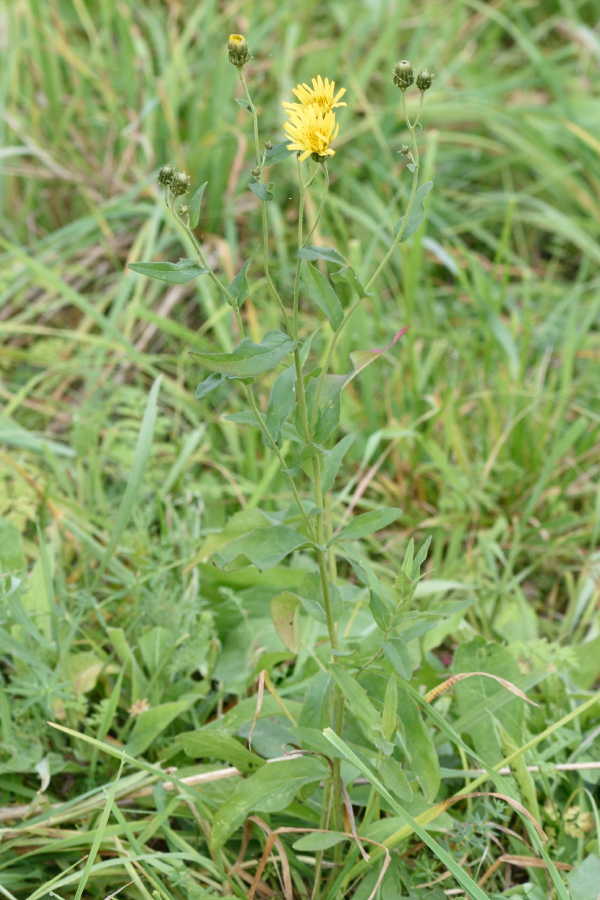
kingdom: Plantae
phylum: Tracheophyta
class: Magnoliopsida
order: Asterales
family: Asteraceae
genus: Hieracium
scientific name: Hieracium umbellatum
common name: Northern hawkweed
